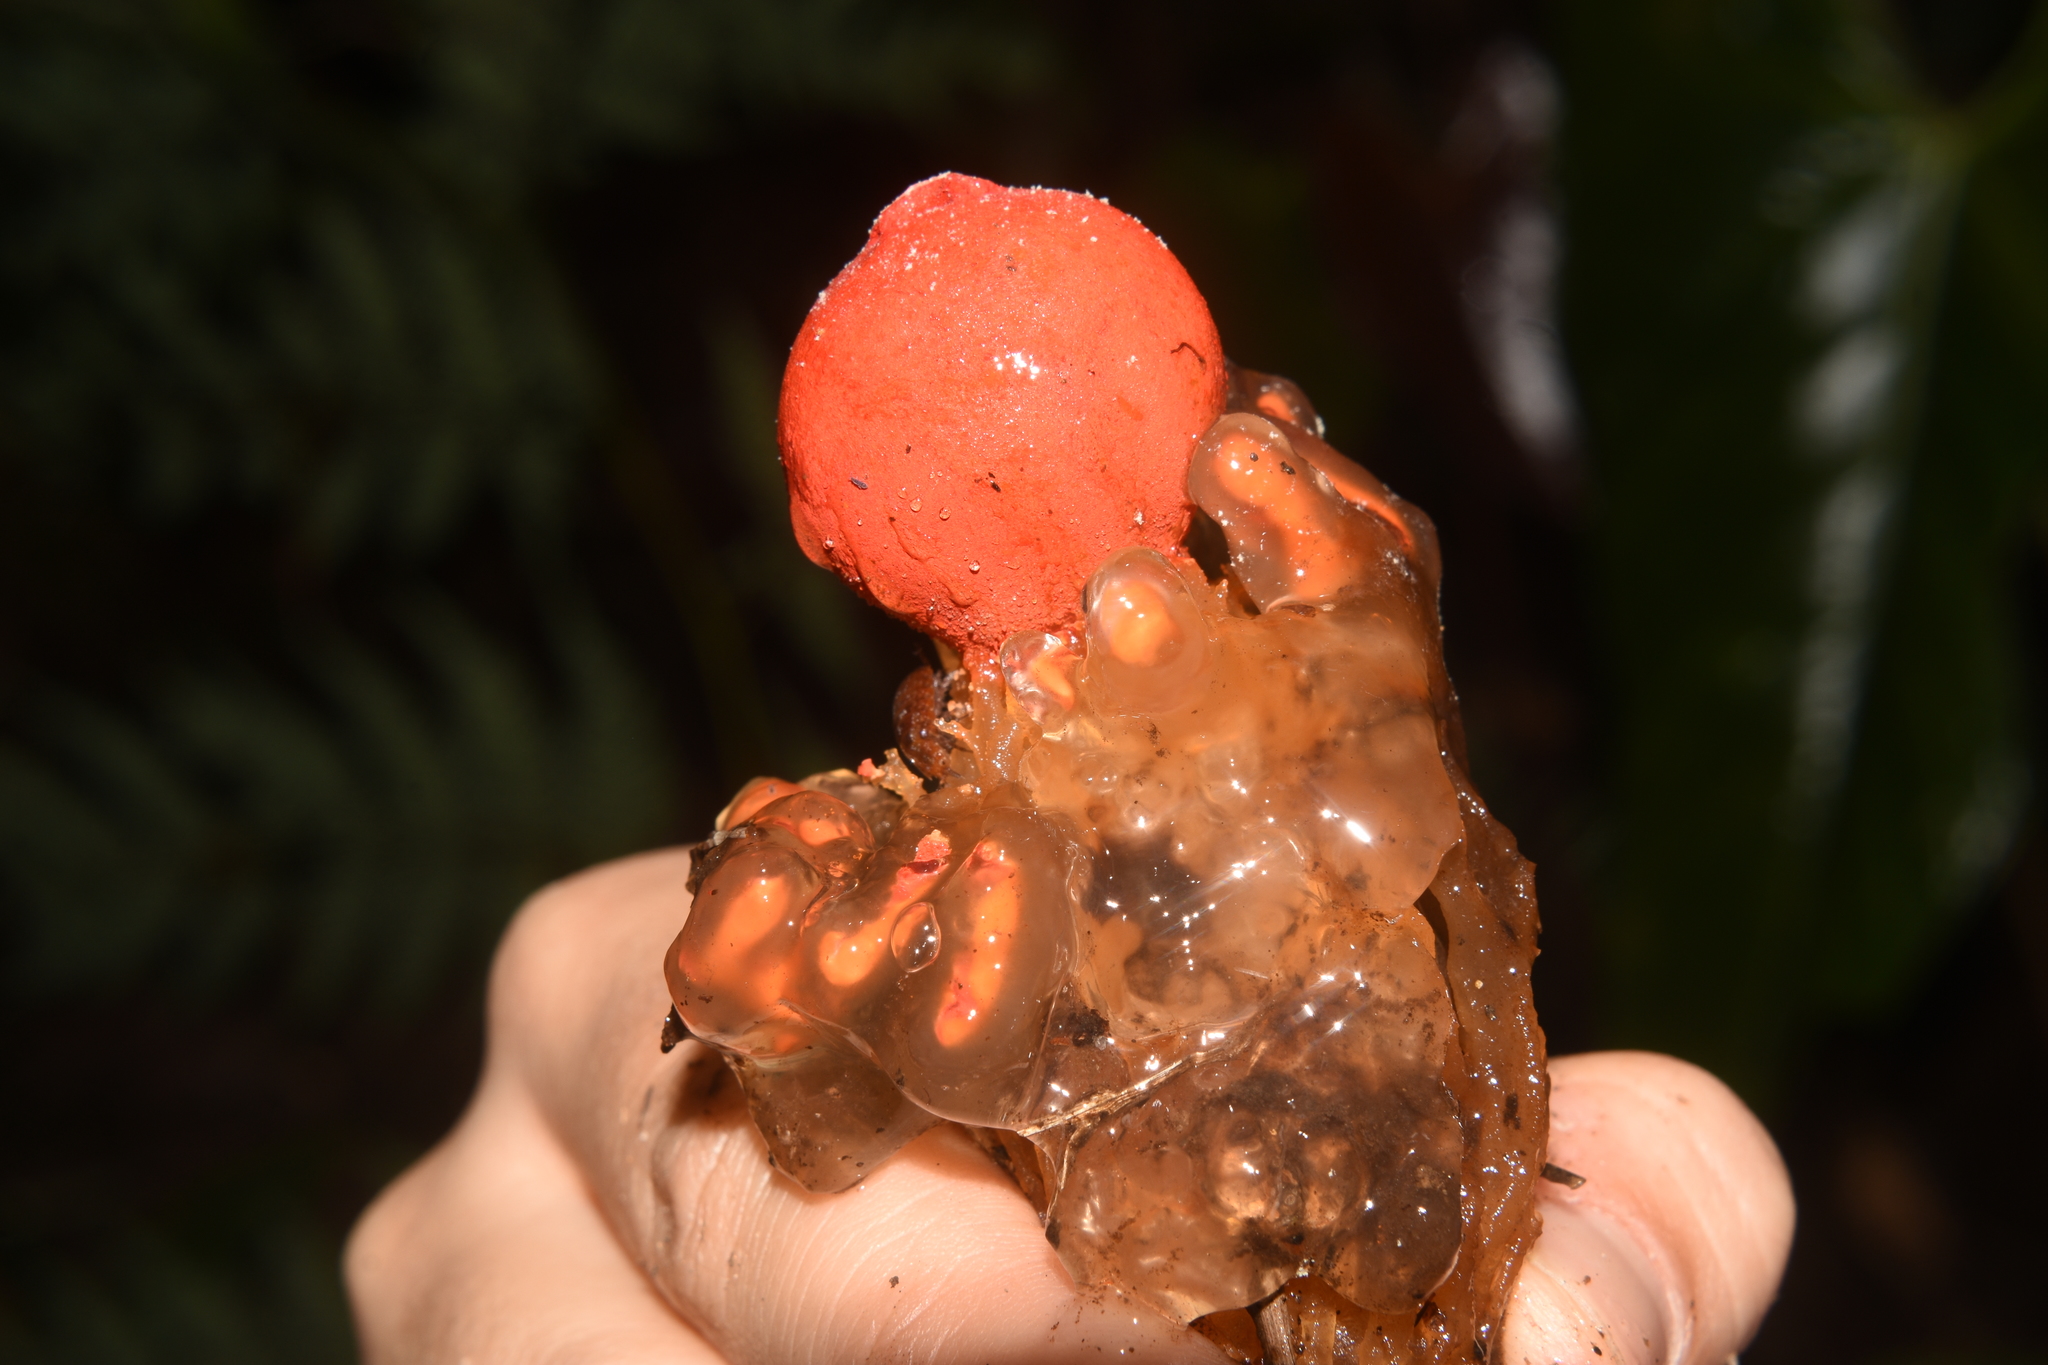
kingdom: Fungi
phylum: Basidiomycota
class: Agaricomycetes
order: Boletales
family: Calostomataceae
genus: Calostoma
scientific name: Calostoma cinnabarinum
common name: Stalked puffball-in-aspic
